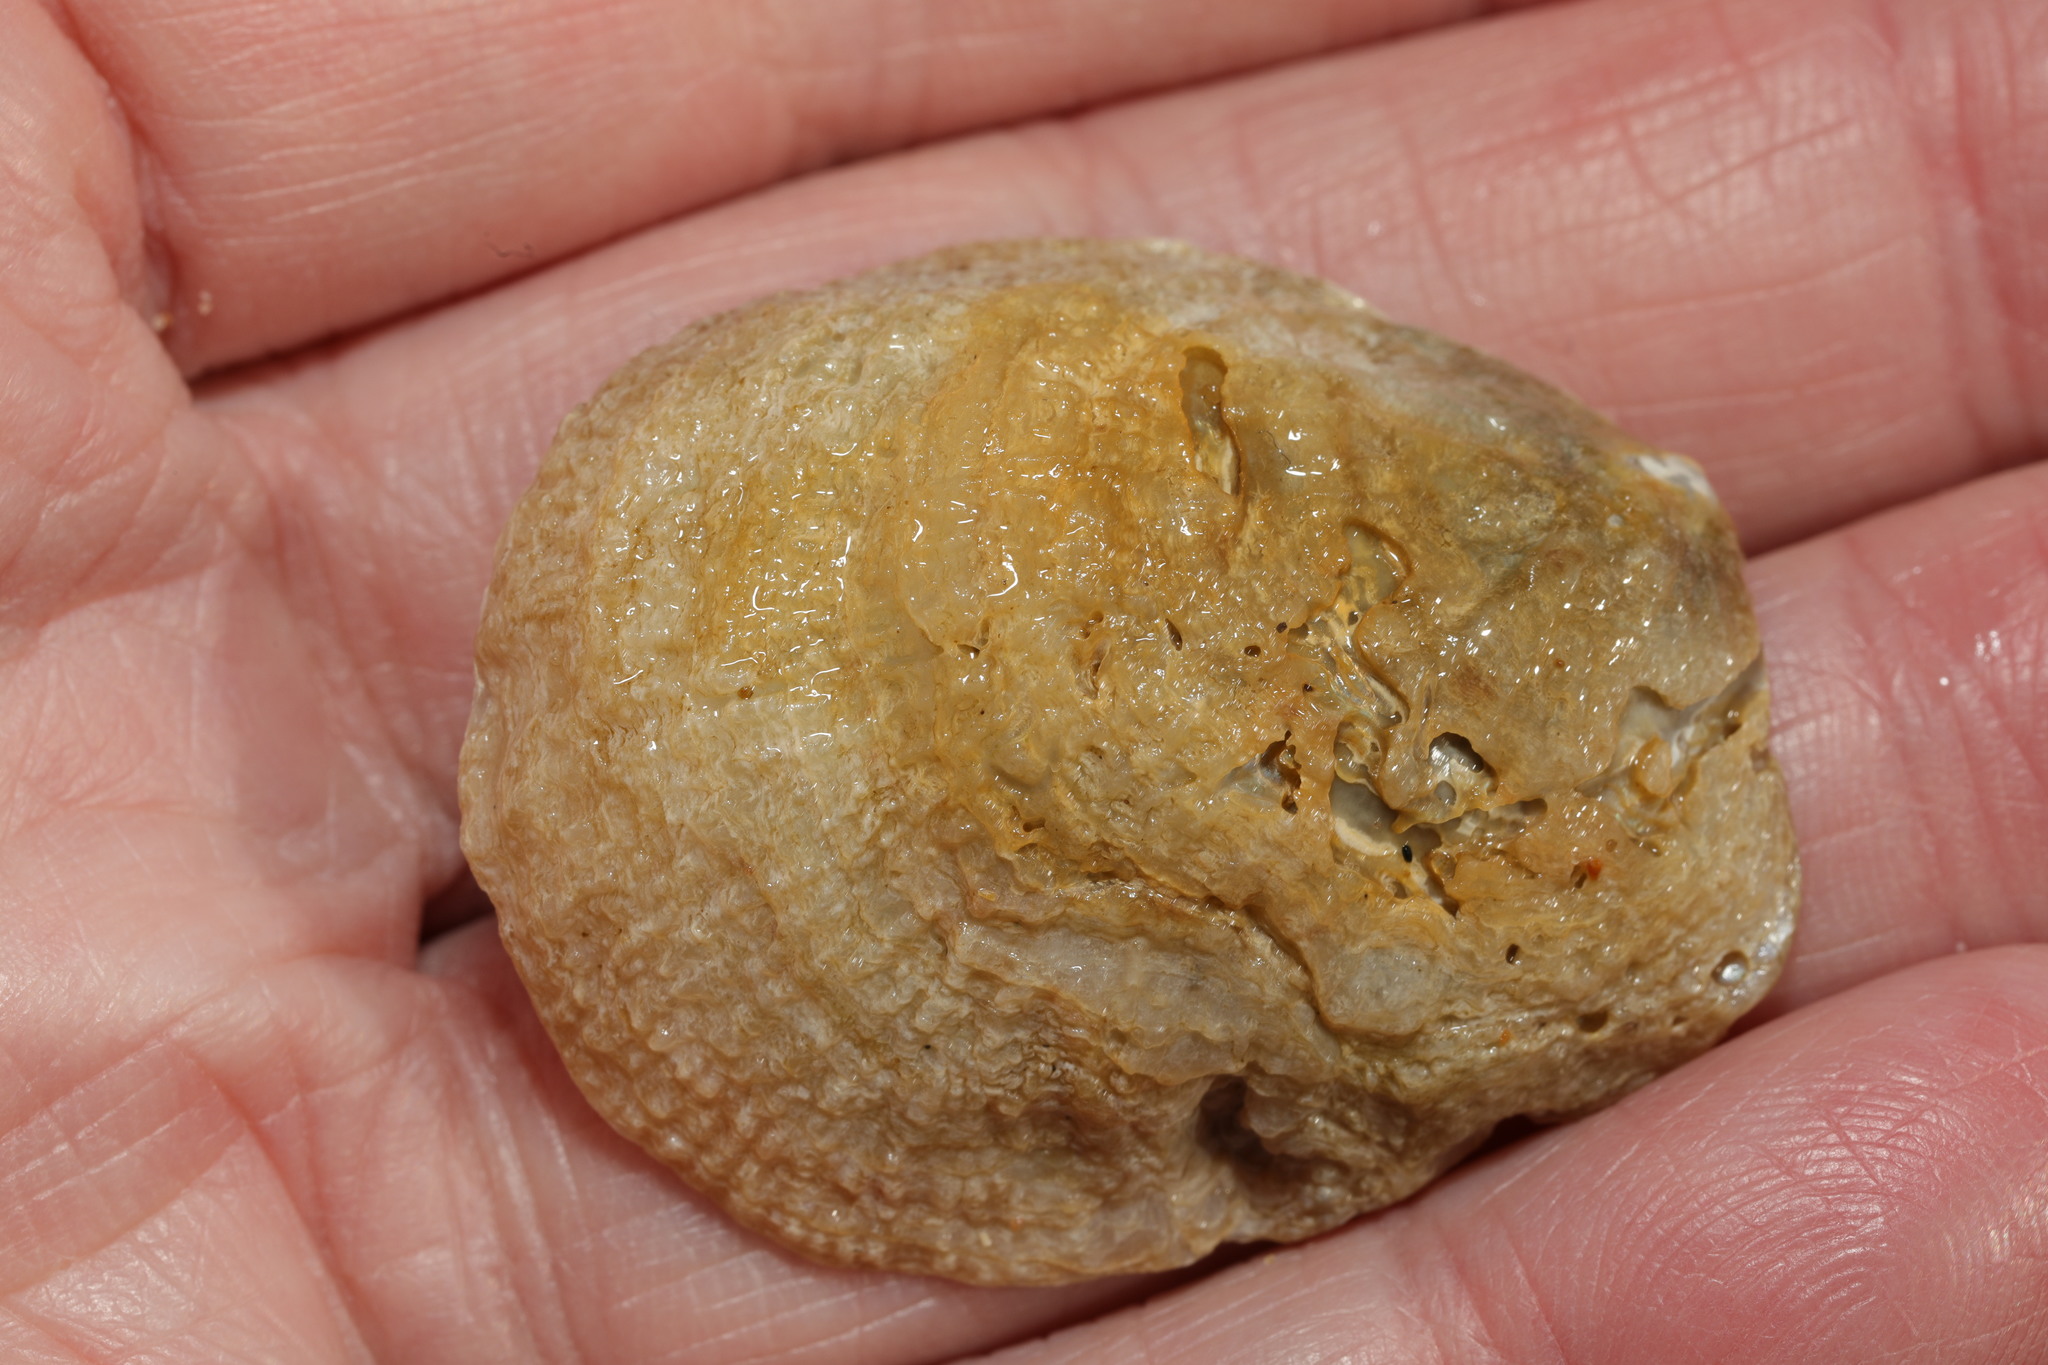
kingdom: Animalia
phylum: Mollusca
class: Bivalvia
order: Ostreida
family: Ostreidae
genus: Ostrea
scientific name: Ostrea edulis
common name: Flat oyster
